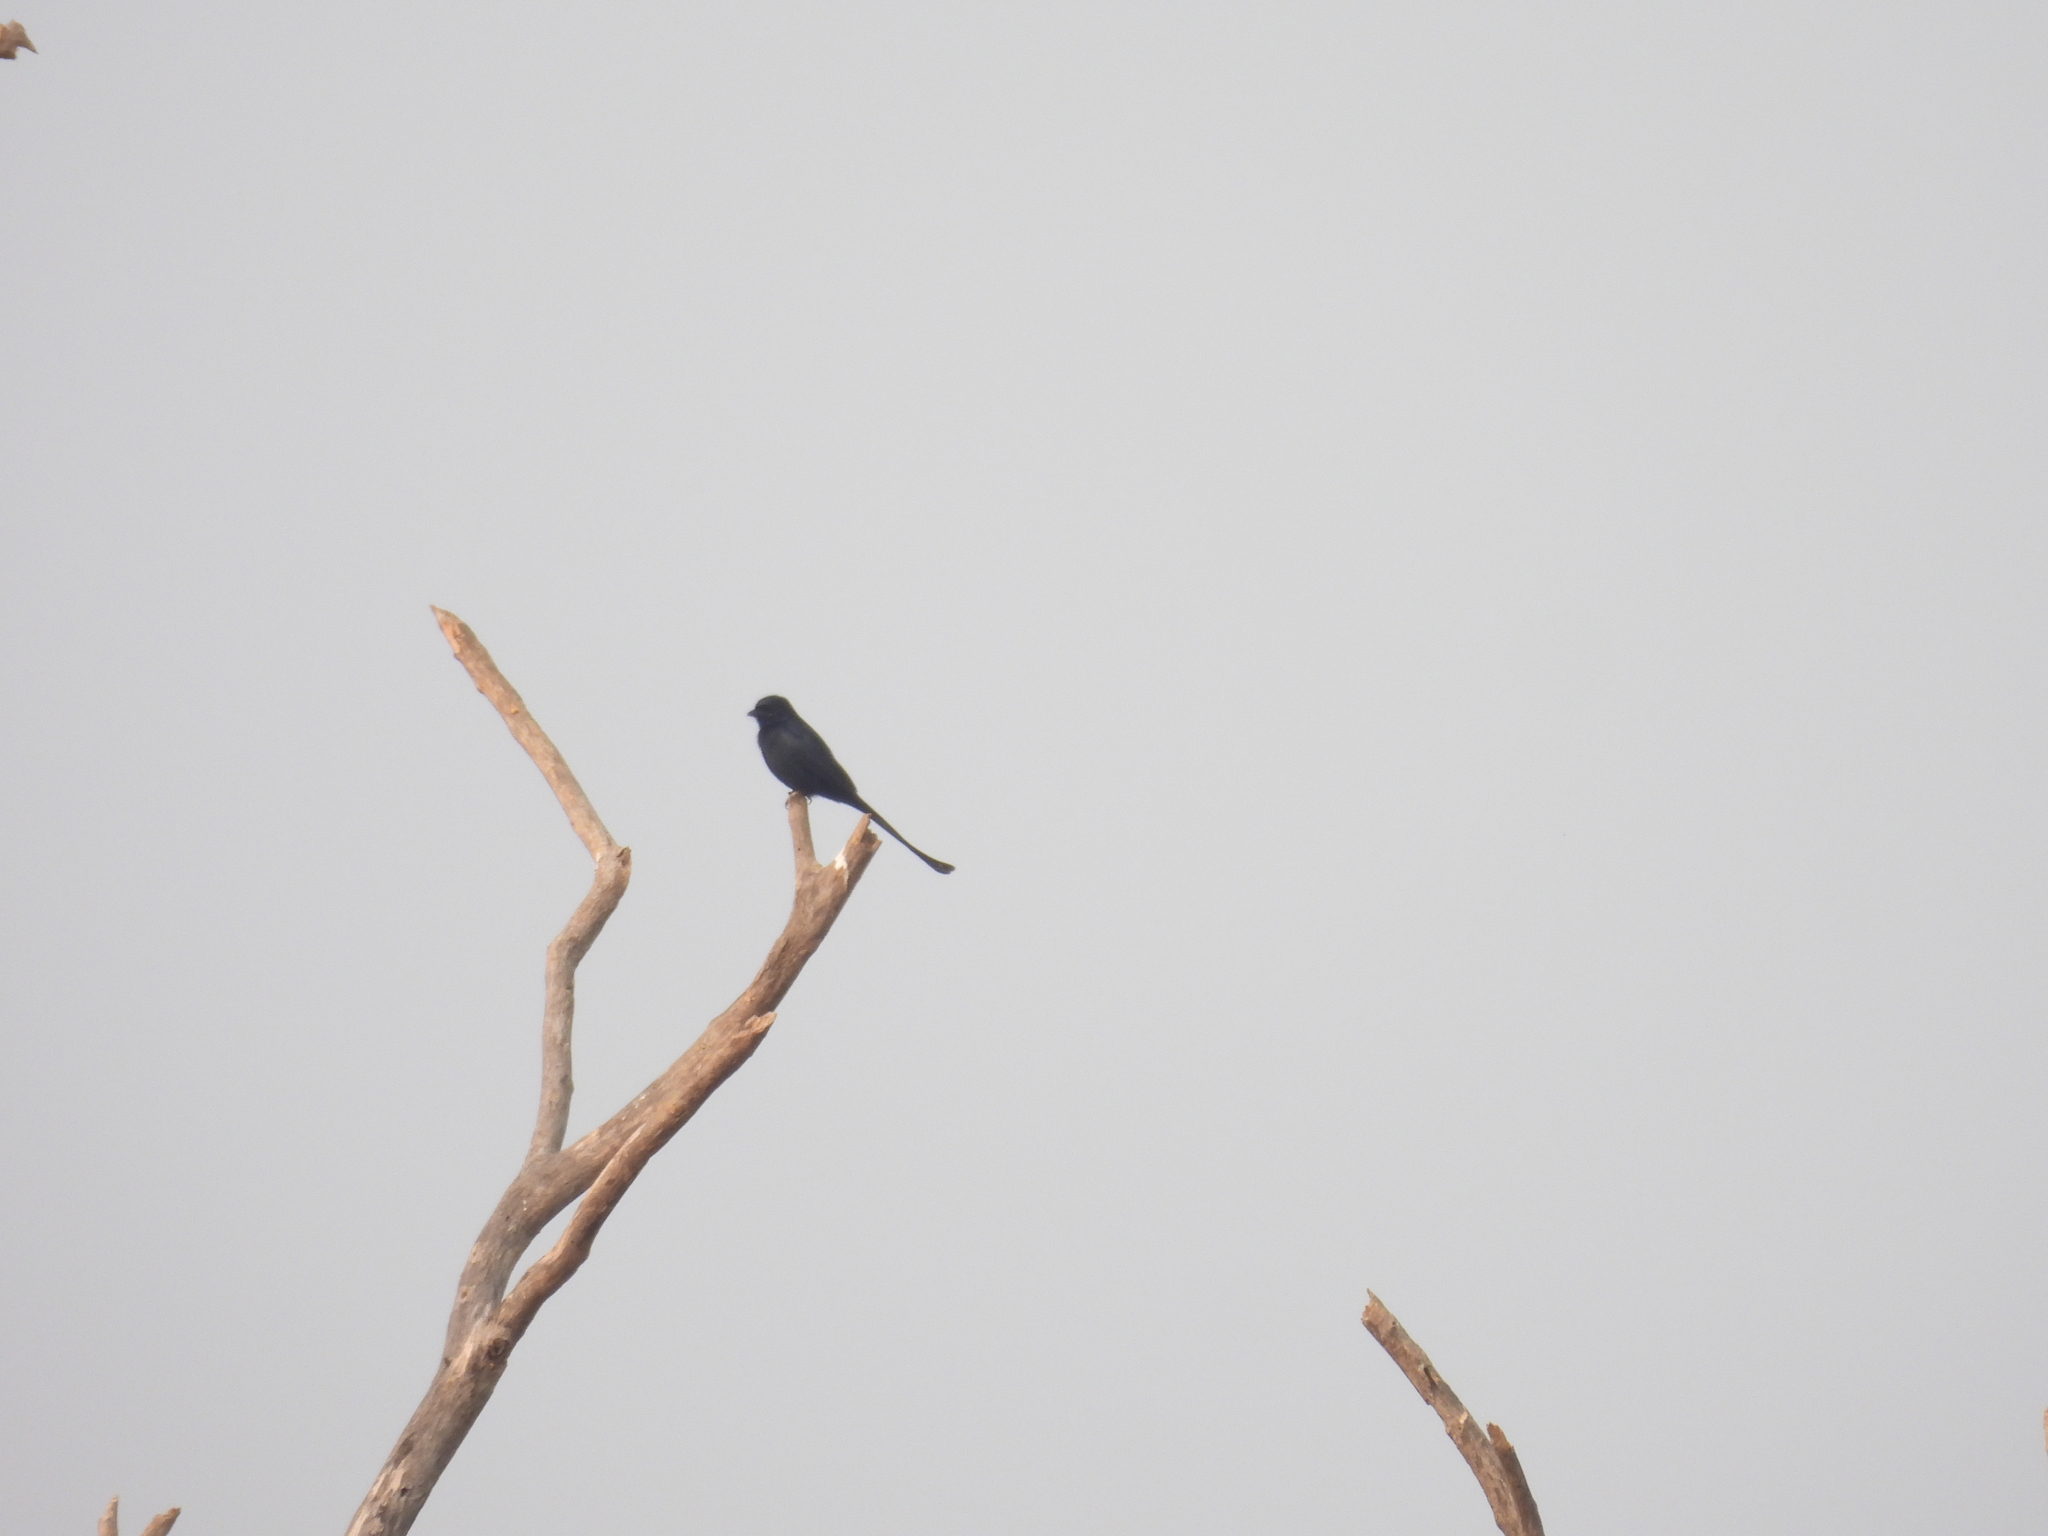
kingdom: Animalia
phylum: Chordata
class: Aves
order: Passeriformes
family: Dicruridae
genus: Dicrurus
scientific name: Dicrurus macrocercus
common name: Black drongo
